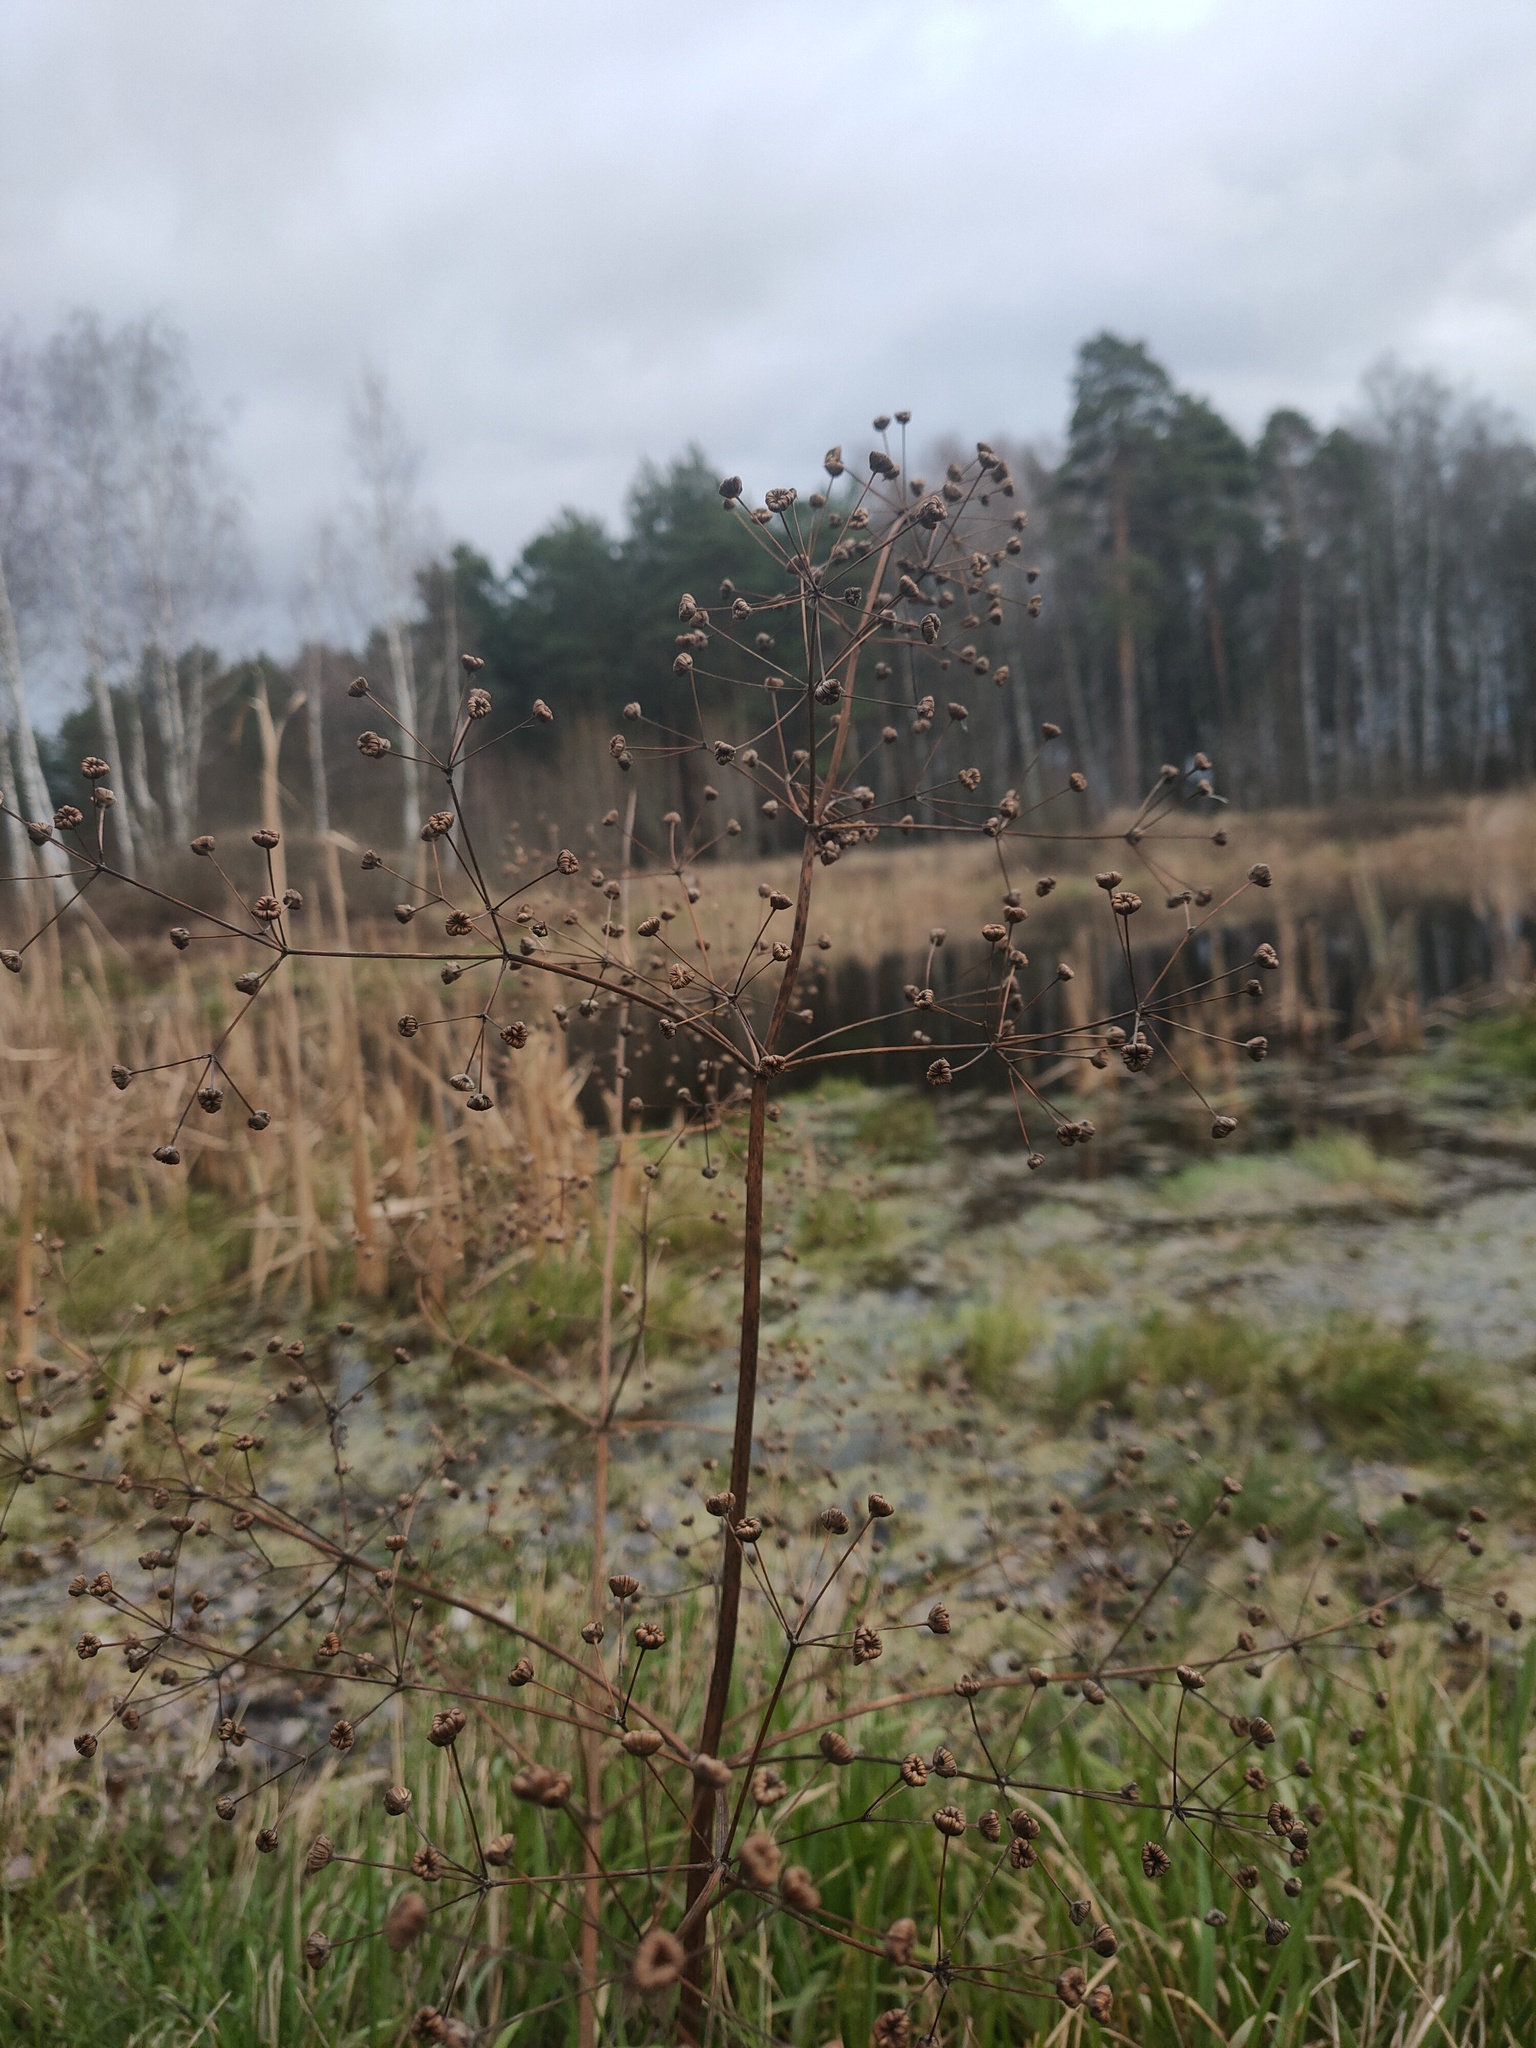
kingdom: Plantae
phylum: Tracheophyta
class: Liliopsida
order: Alismatales
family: Alismataceae
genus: Alisma
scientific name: Alisma plantago-aquatica
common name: Water-plantain
